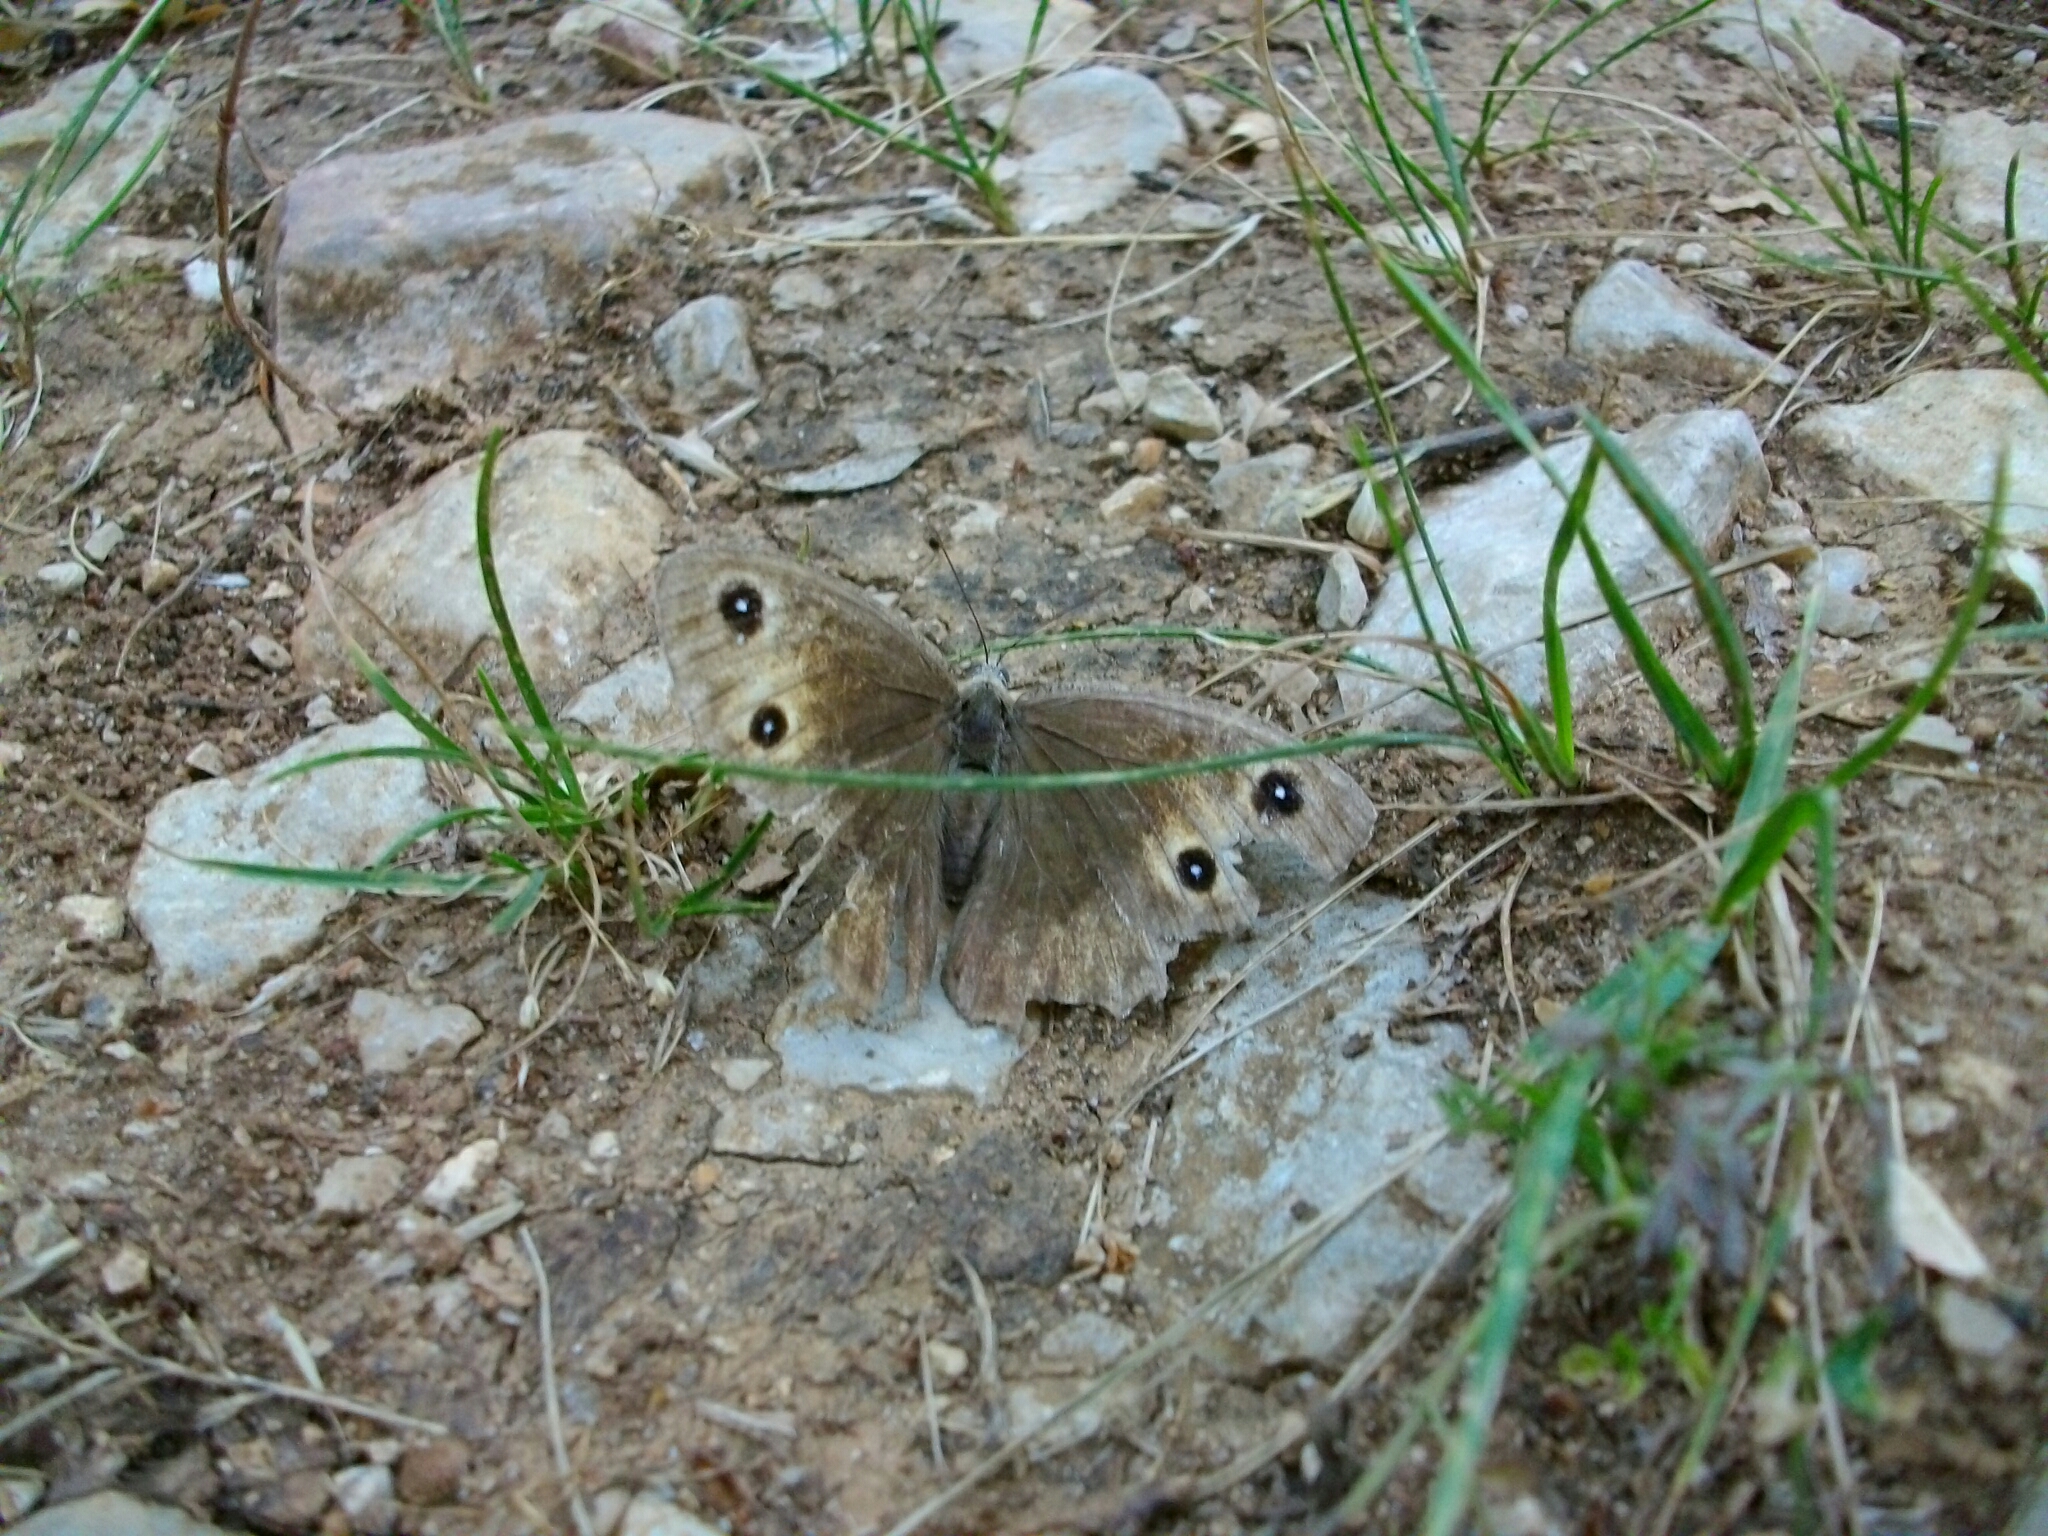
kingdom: Animalia
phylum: Arthropoda
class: Insecta
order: Lepidoptera
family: Nymphalidae
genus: Satyrus
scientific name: Satyrus ferula
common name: Great sooty satyr
